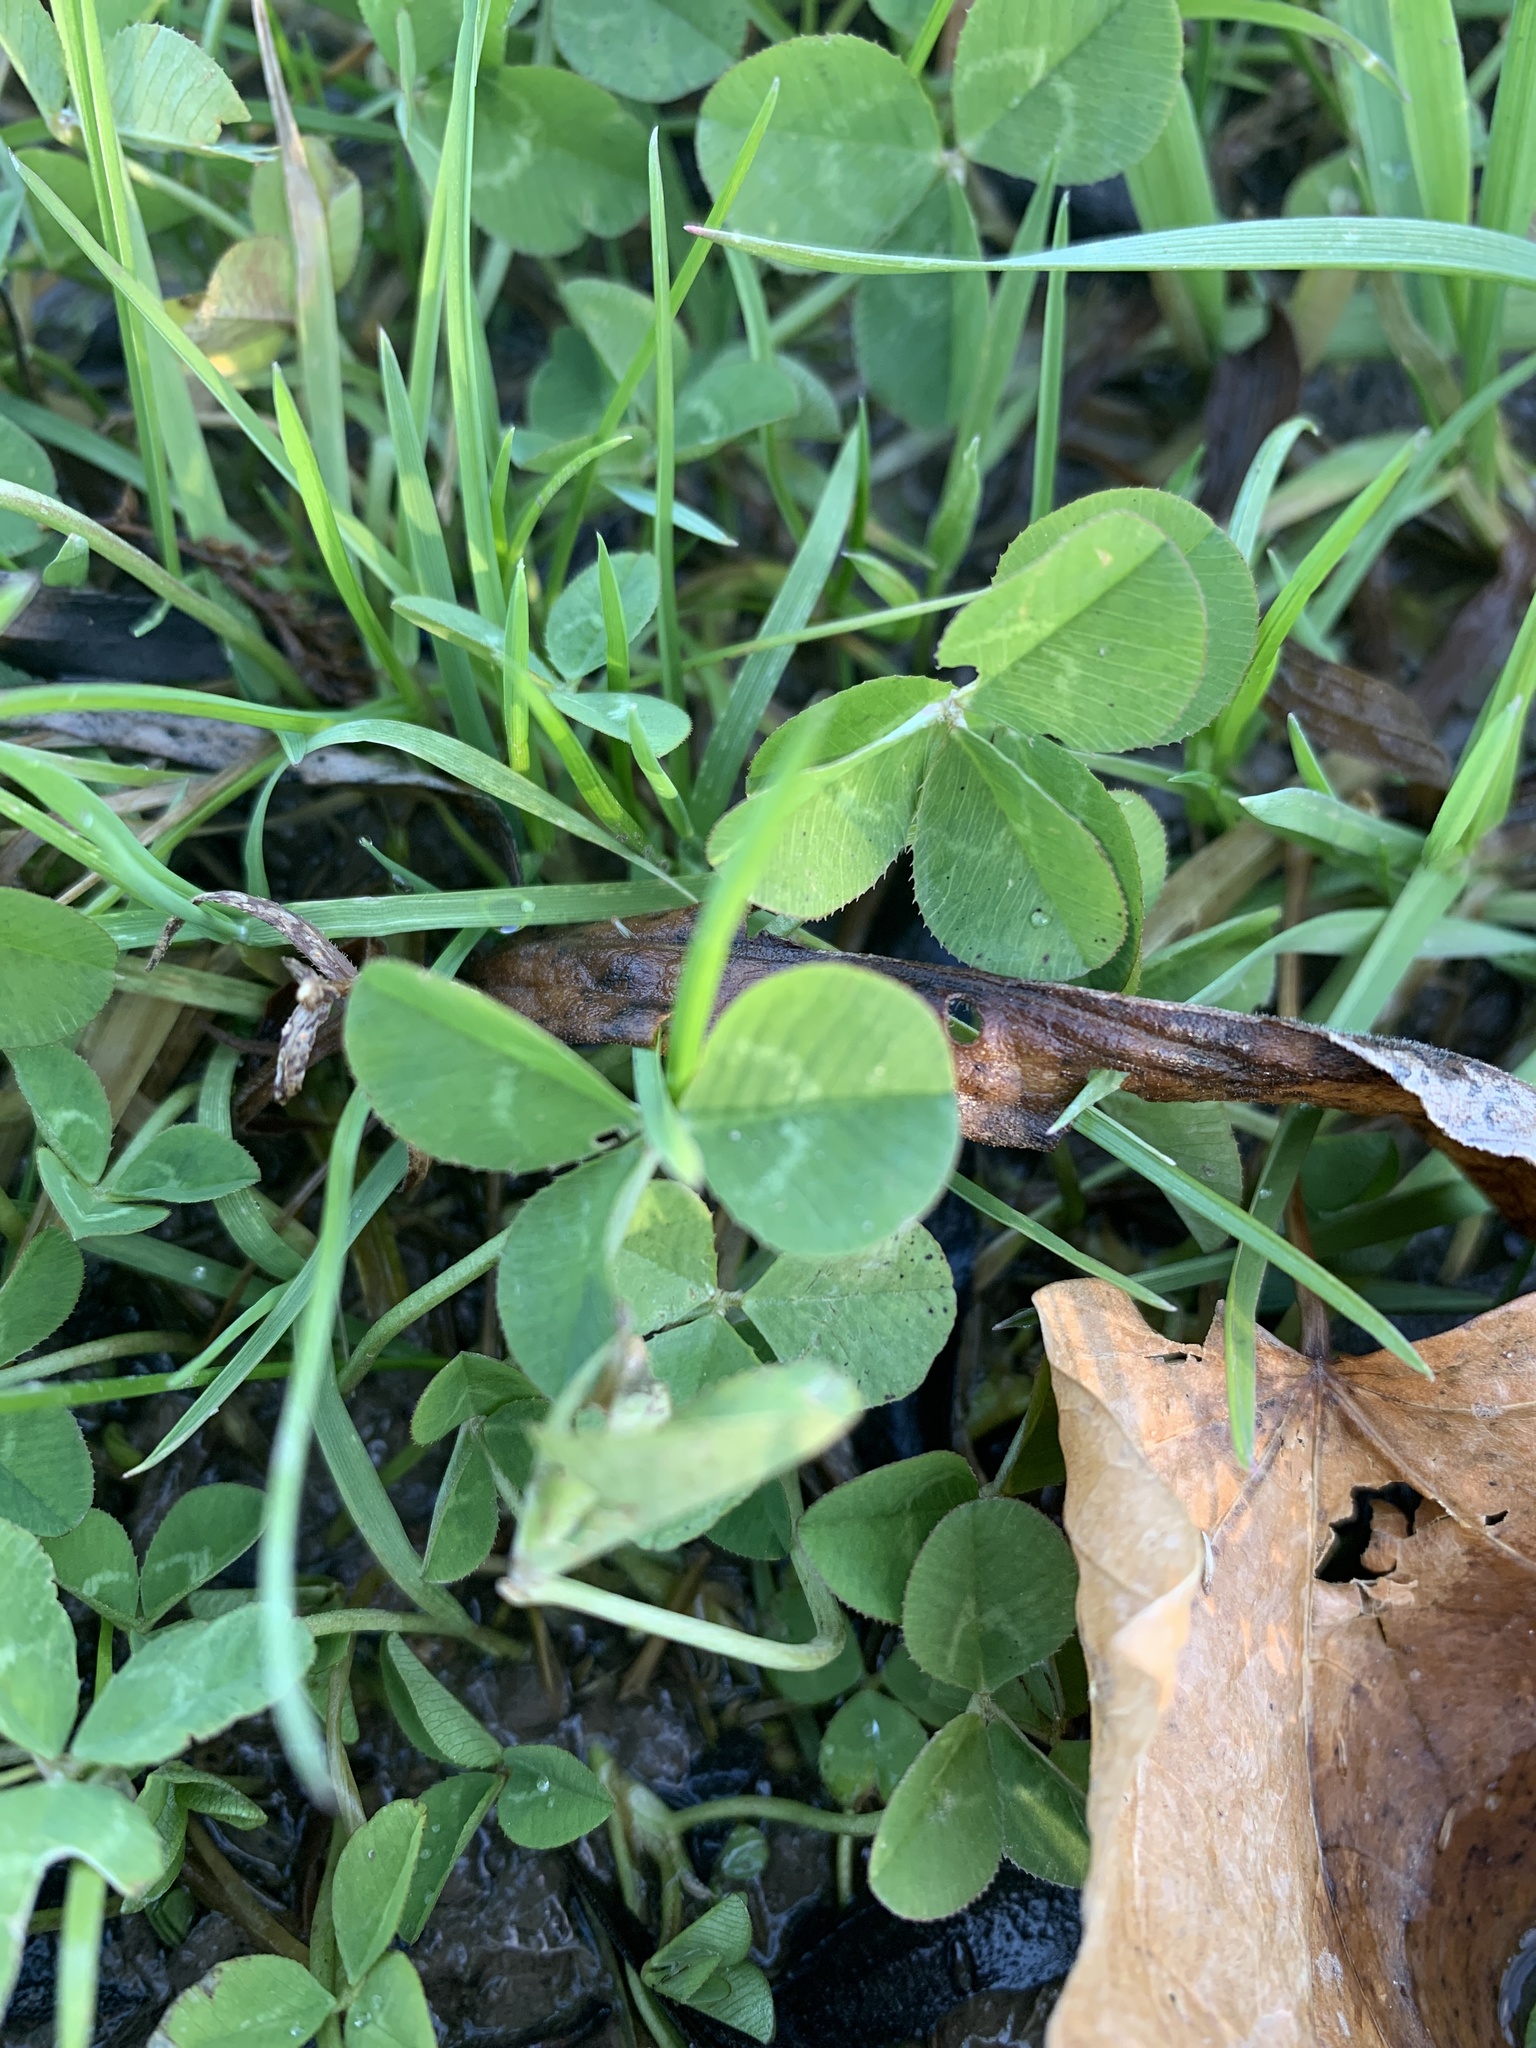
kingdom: Plantae
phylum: Tracheophyta
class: Magnoliopsida
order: Fabales
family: Fabaceae
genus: Trifolium
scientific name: Trifolium repens
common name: White clover
